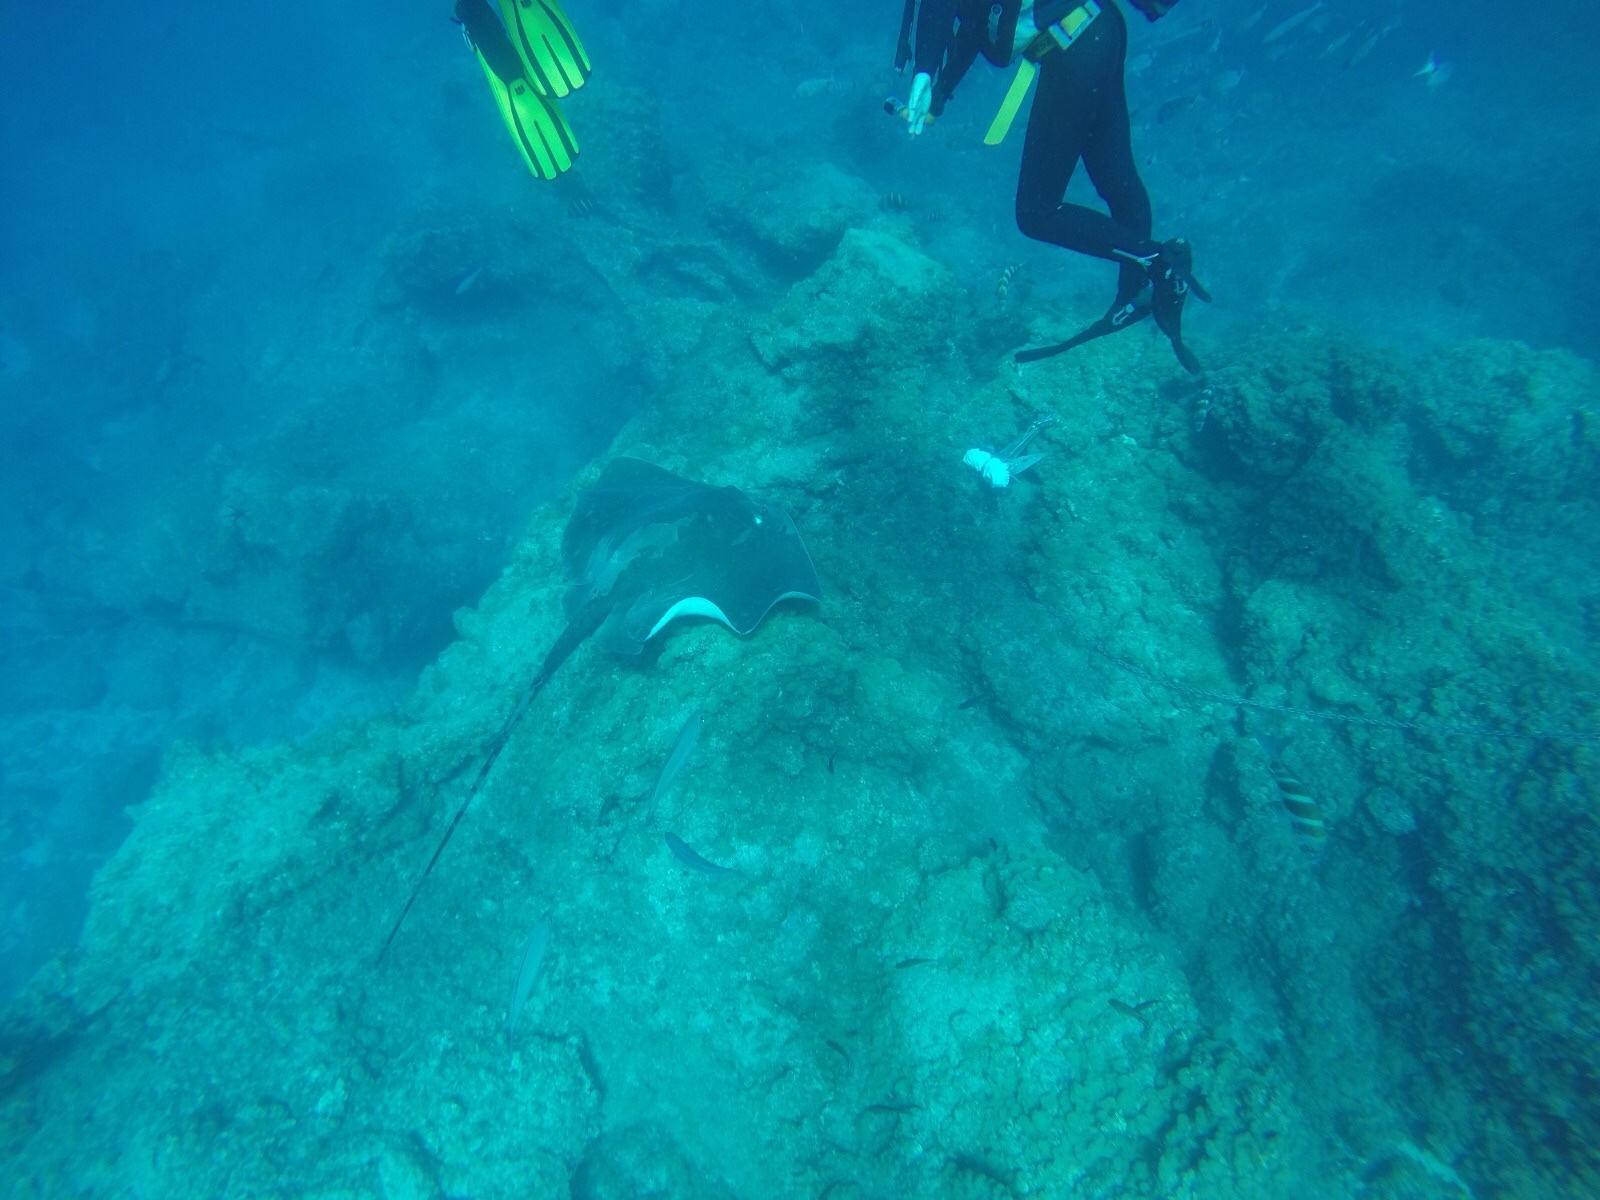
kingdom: Animalia
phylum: Chordata
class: Elasmobranchii
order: Myliobatiformes
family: Dasyatidae
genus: Bathytoshia
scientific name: Bathytoshia lata
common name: Brown stingray
